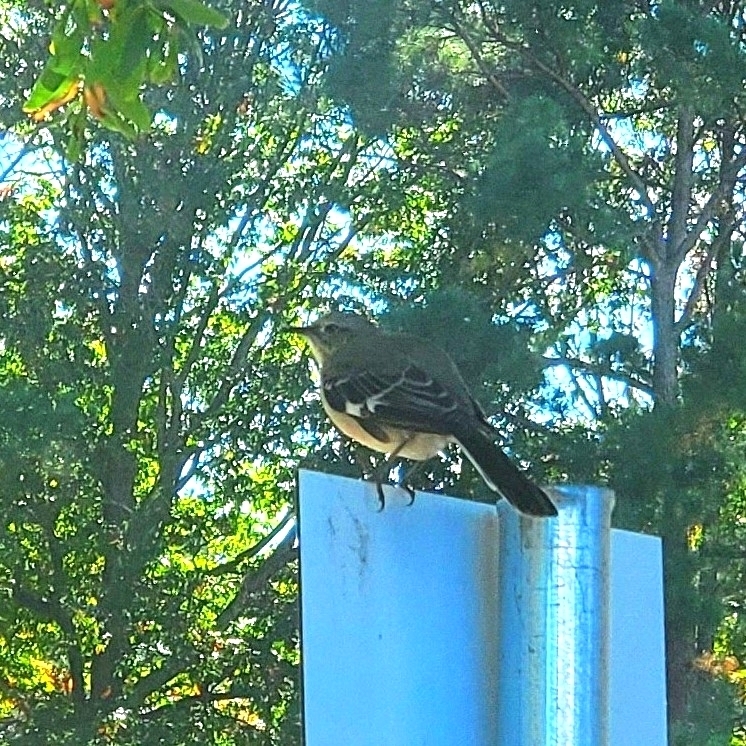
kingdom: Animalia
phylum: Chordata
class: Aves
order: Passeriformes
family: Mimidae
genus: Mimus
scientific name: Mimus polyglottos
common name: Northern mockingbird
